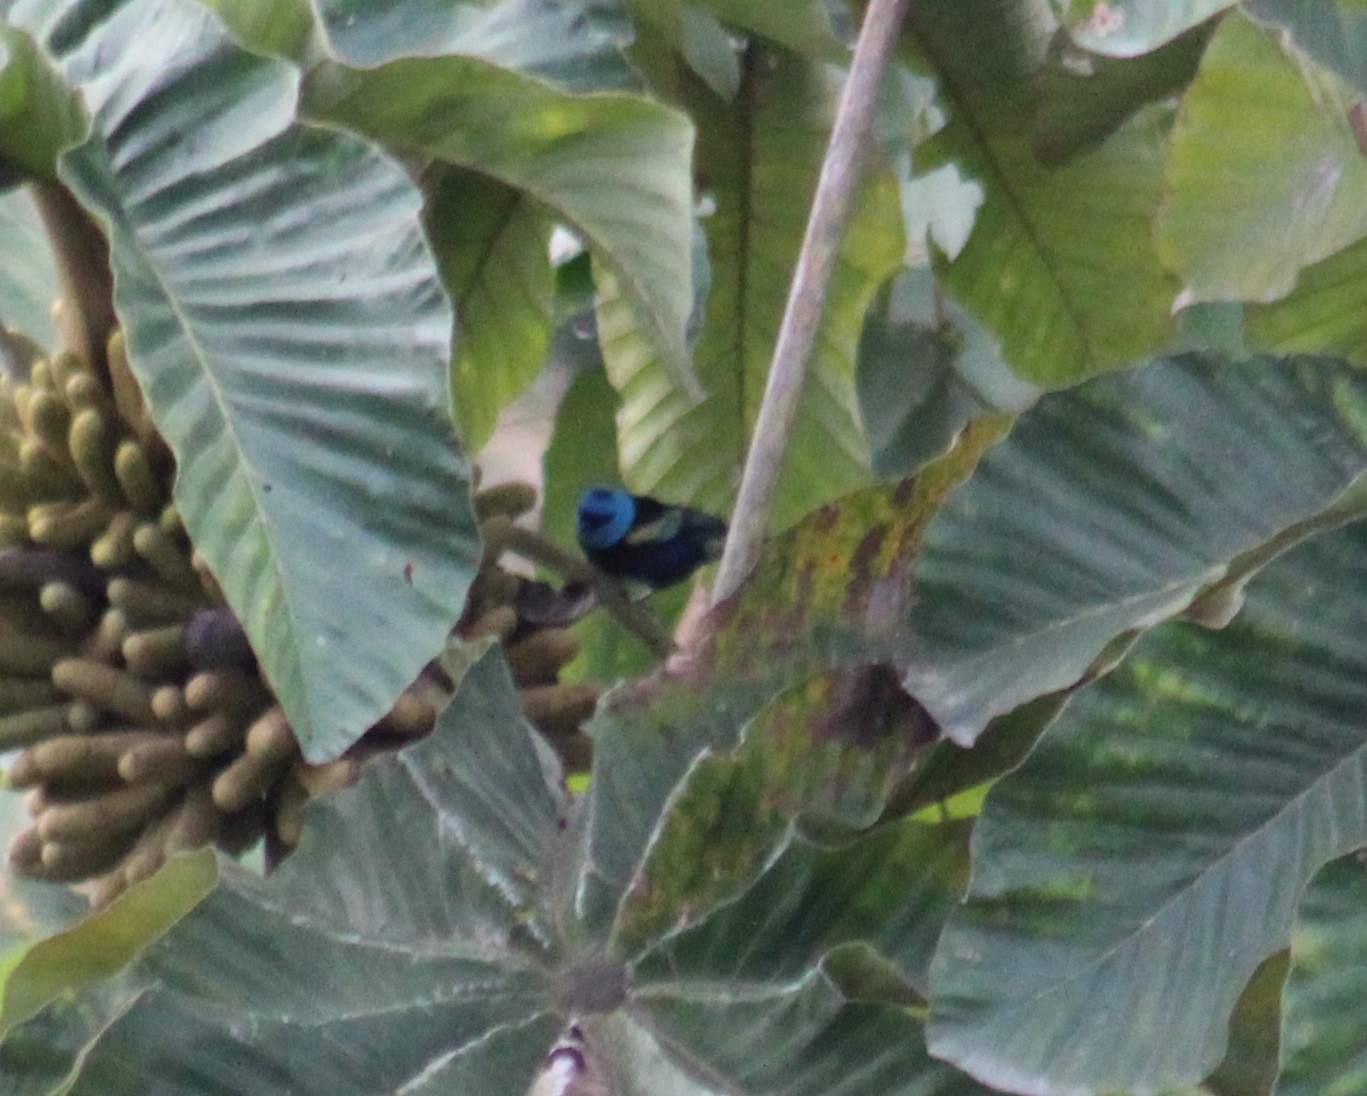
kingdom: Animalia
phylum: Chordata
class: Aves
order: Passeriformes
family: Thraupidae
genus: Stilpnia
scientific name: Stilpnia cyanicollis
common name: Blue-necked tanager
